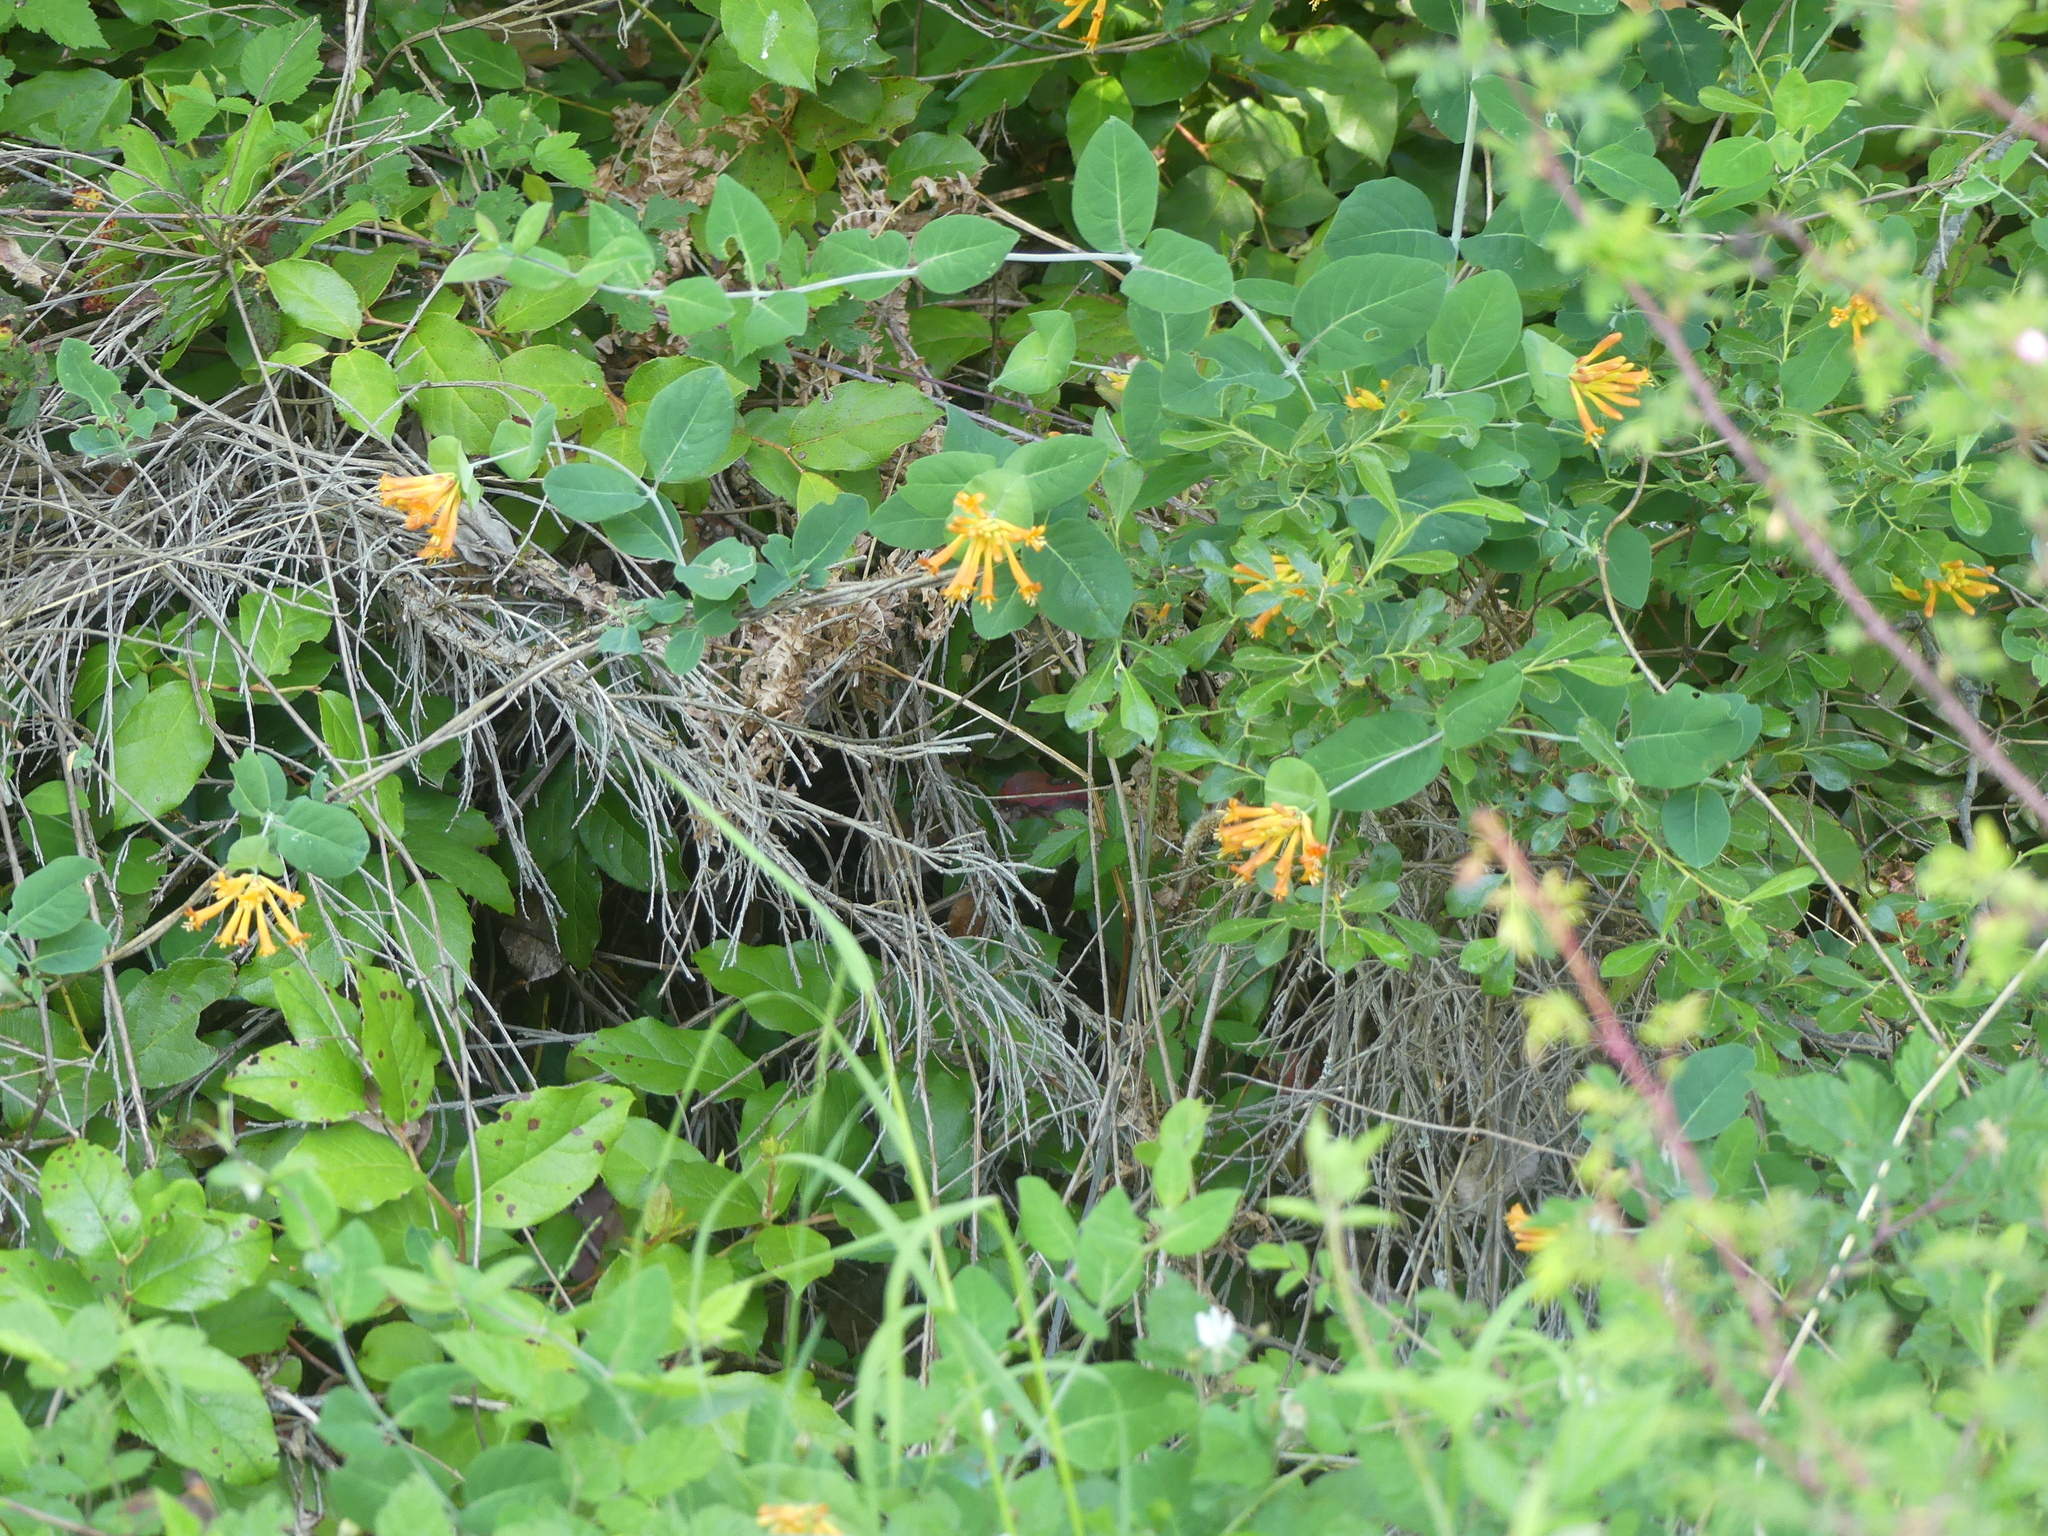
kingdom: Plantae
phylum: Tracheophyta
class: Magnoliopsida
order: Dipsacales
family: Caprifoliaceae
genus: Lonicera
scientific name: Lonicera ciliosa
